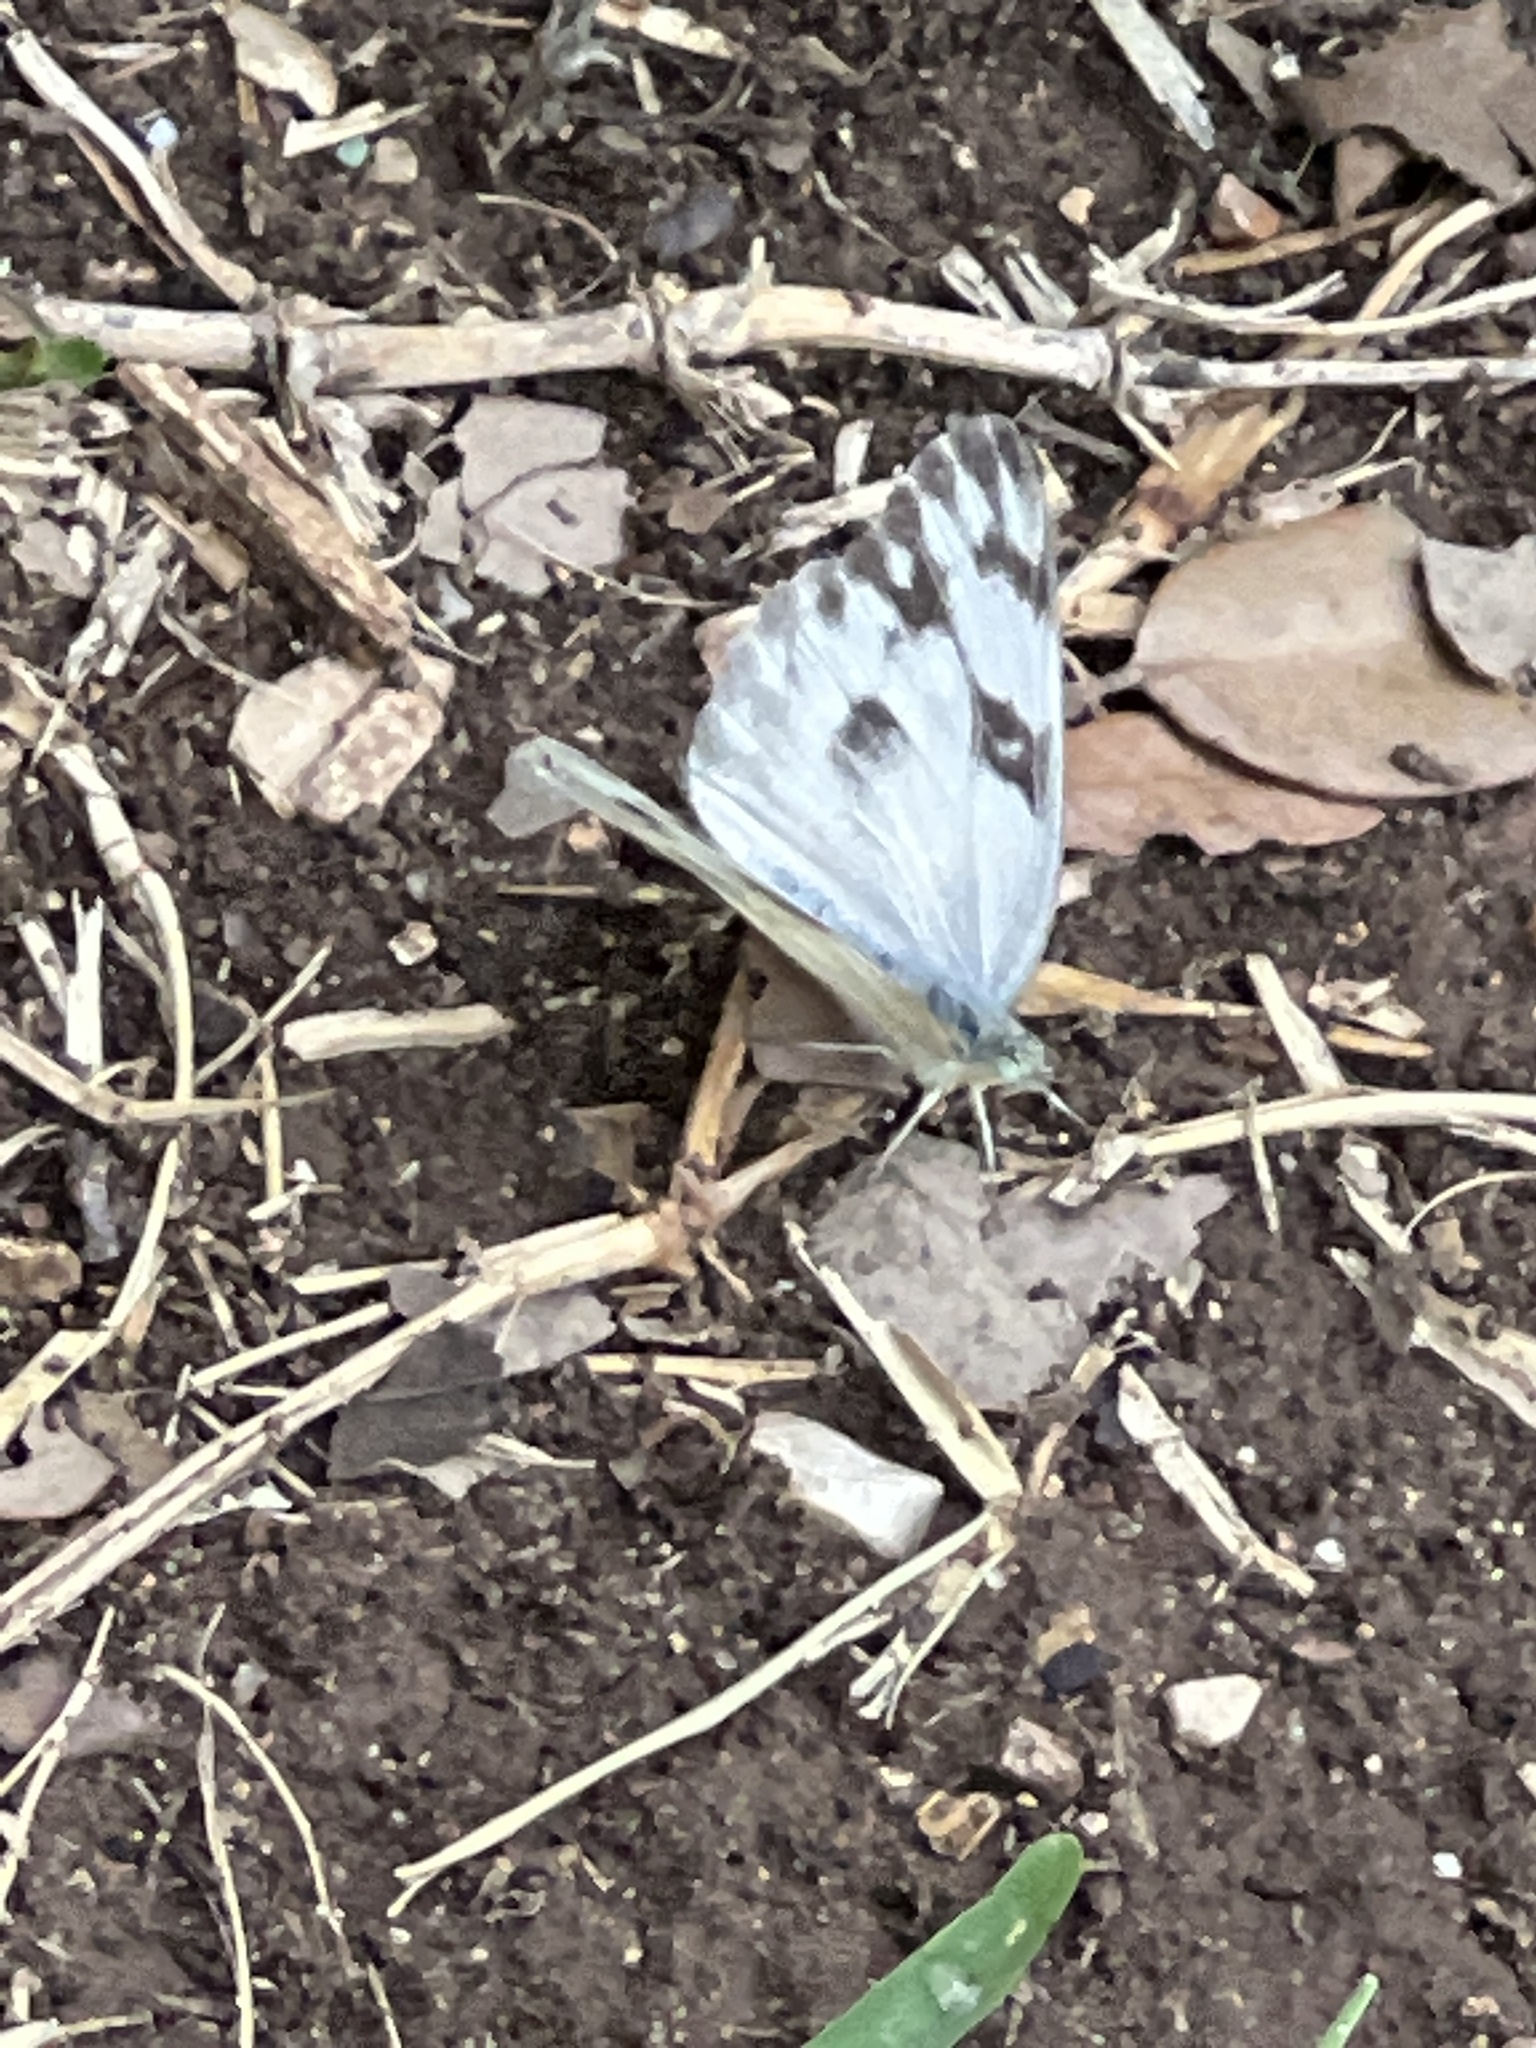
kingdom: Animalia
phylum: Arthropoda
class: Insecta
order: Lepidoptera
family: Pieridae
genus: Pontia
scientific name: Pontia protodice
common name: Checkered white
